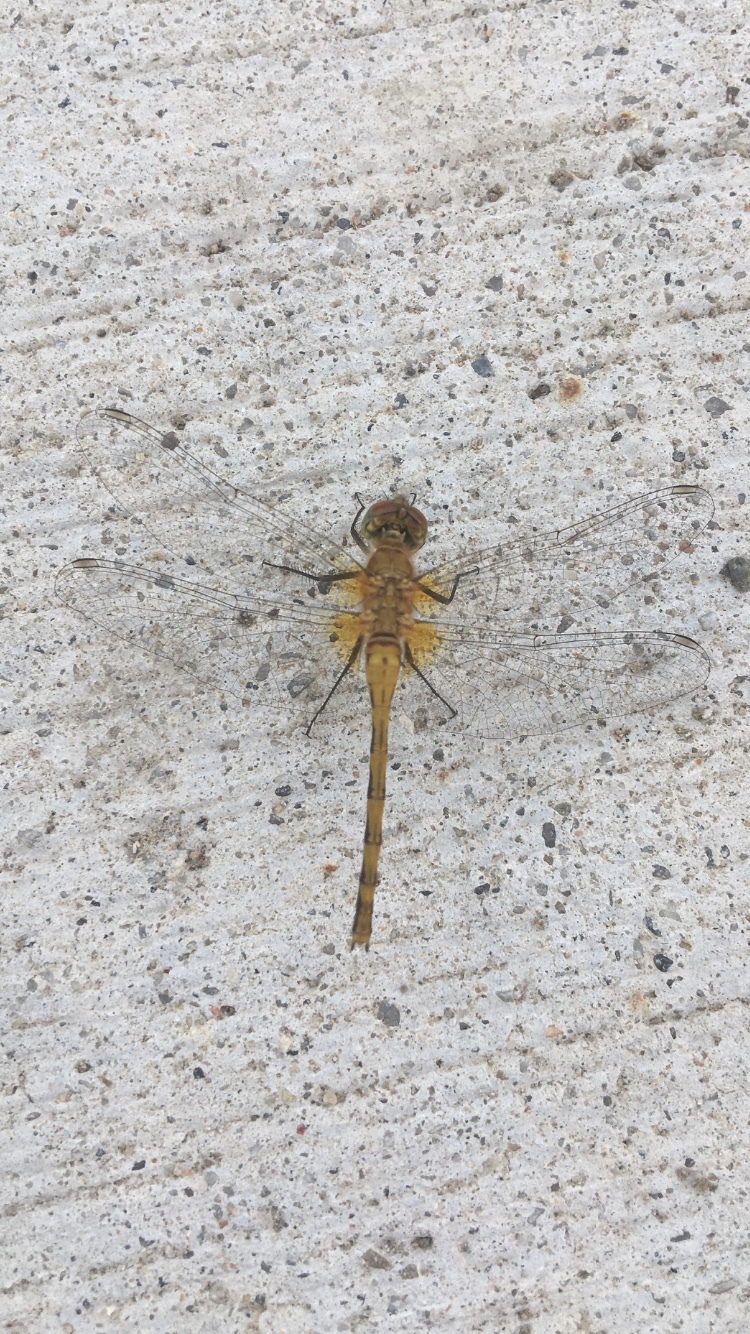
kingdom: Animalia
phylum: Arthropoda
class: Insecta
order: Odonata
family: Libellulidae
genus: Sympetrum
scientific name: Sympetrum obtrusum
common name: White-faced meadowhawk
